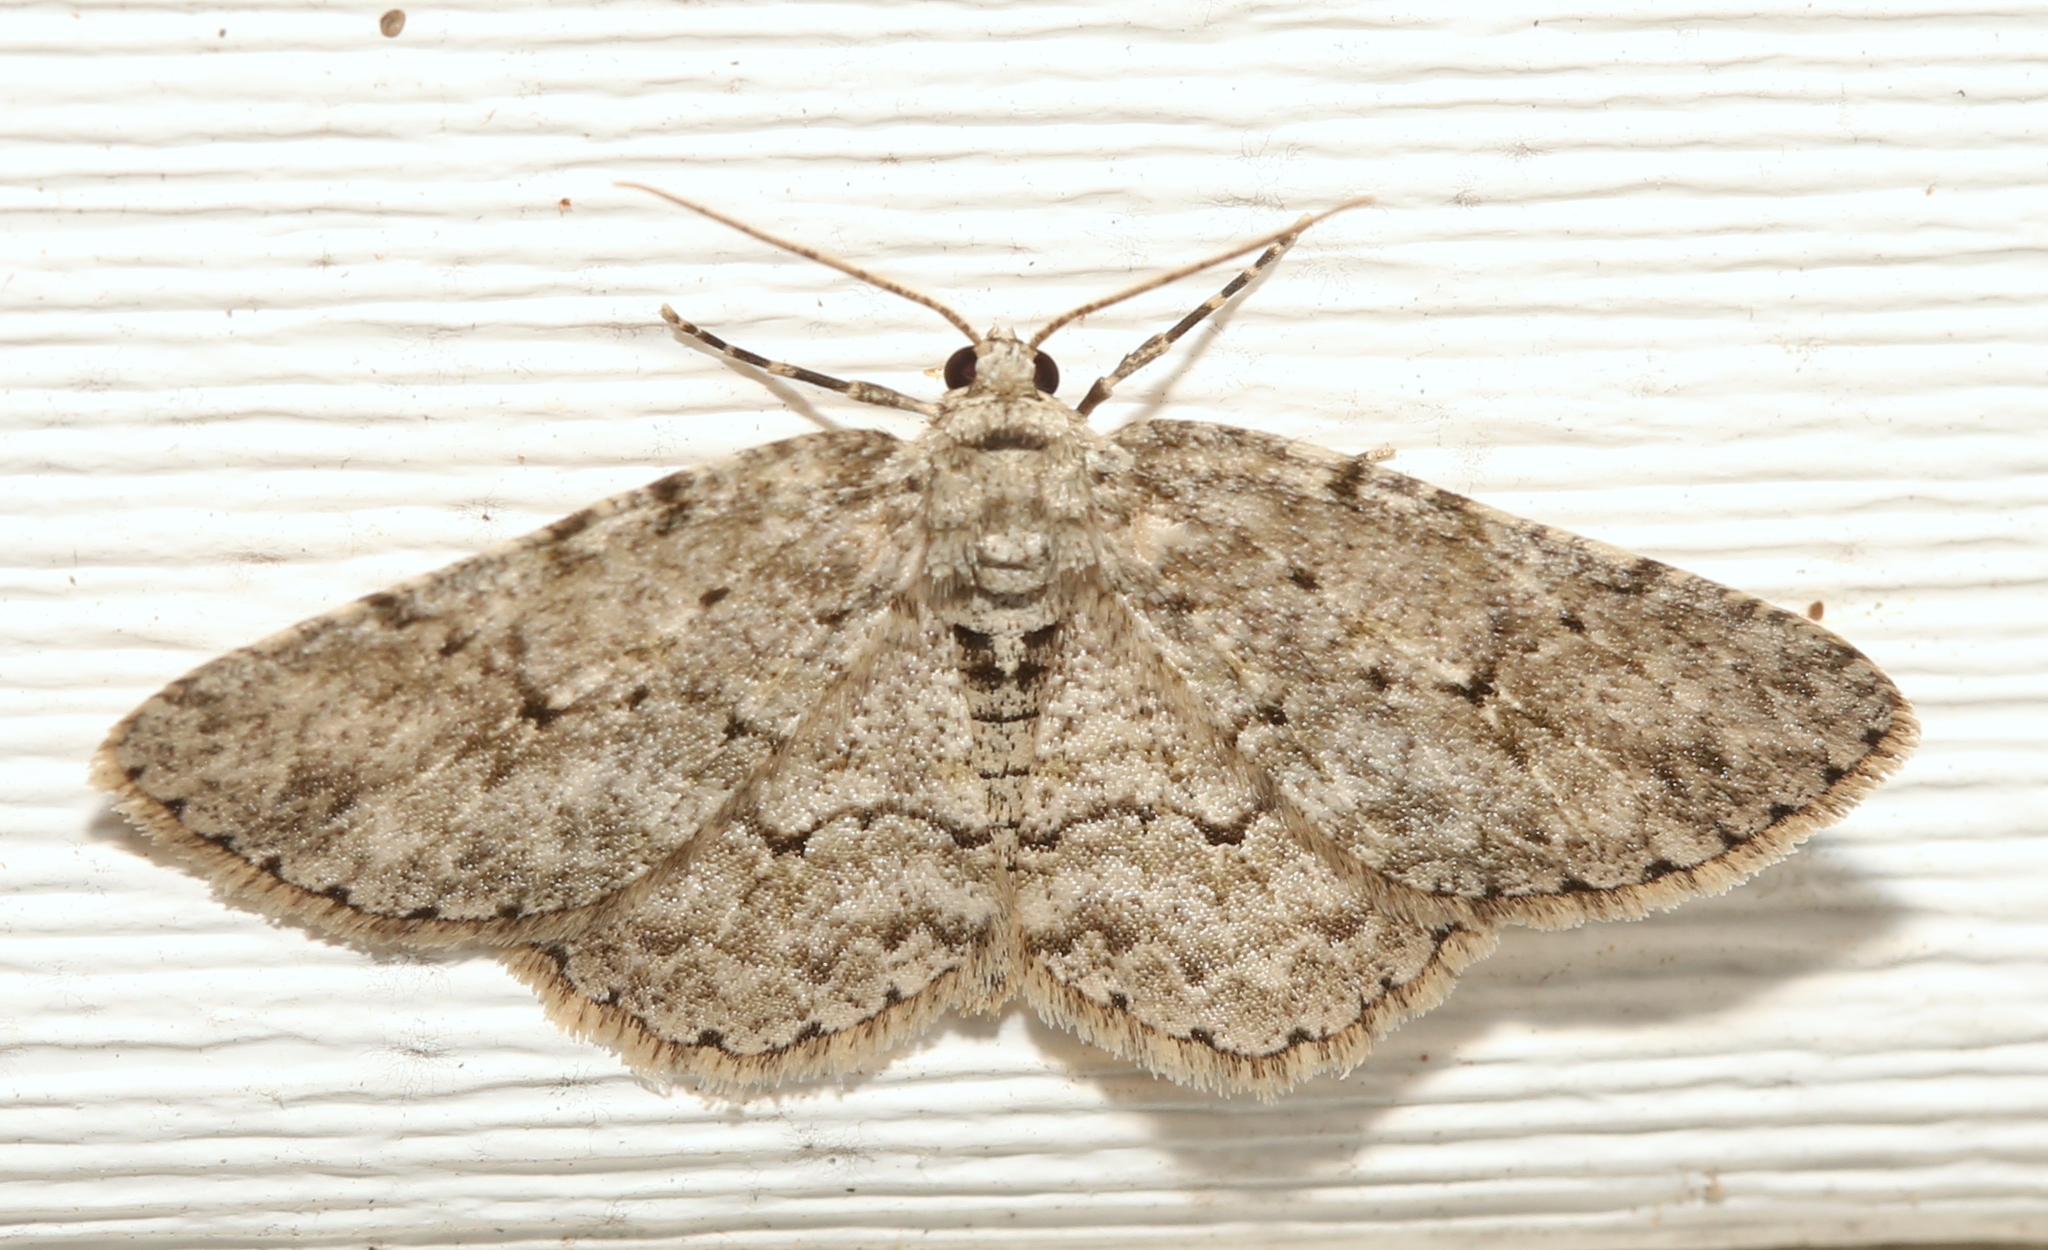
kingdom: Animalia
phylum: Arthropoda
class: Insecta
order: Lepidoptera
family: Geometridae
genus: Ectropis
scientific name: Ectropis crepuscularia
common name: Engrailed
